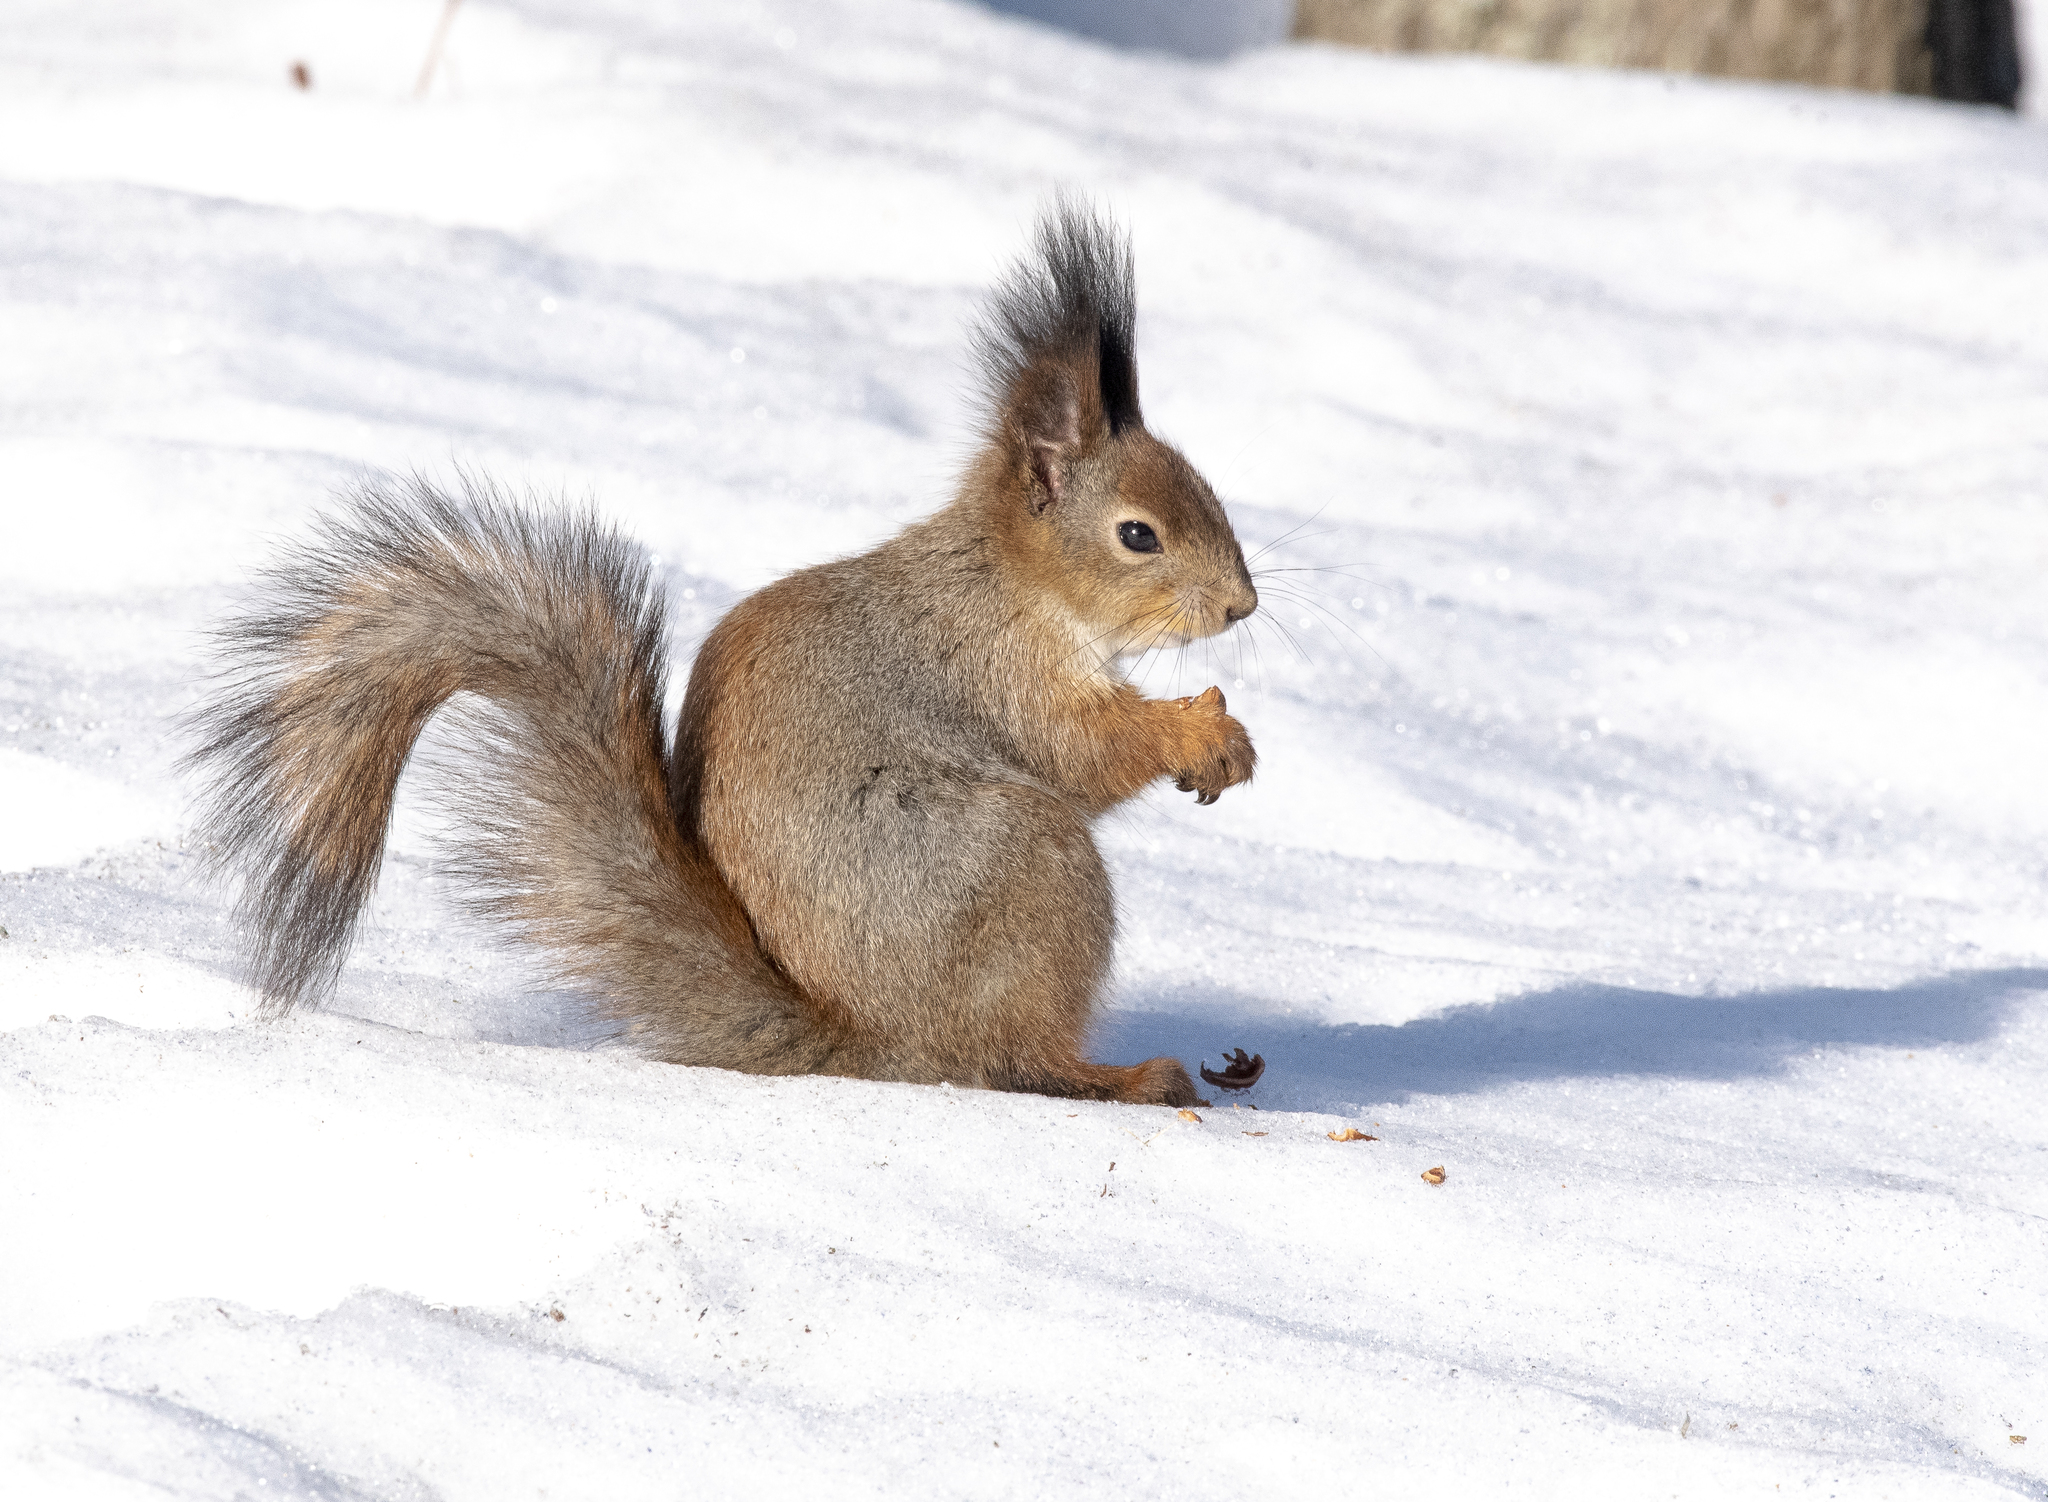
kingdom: Animalia
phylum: Chordata
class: Mammalia
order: Rodentia
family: Sciuridae
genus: Sciurus
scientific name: Sciurus vulgaris
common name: Eurasian red squirrel
